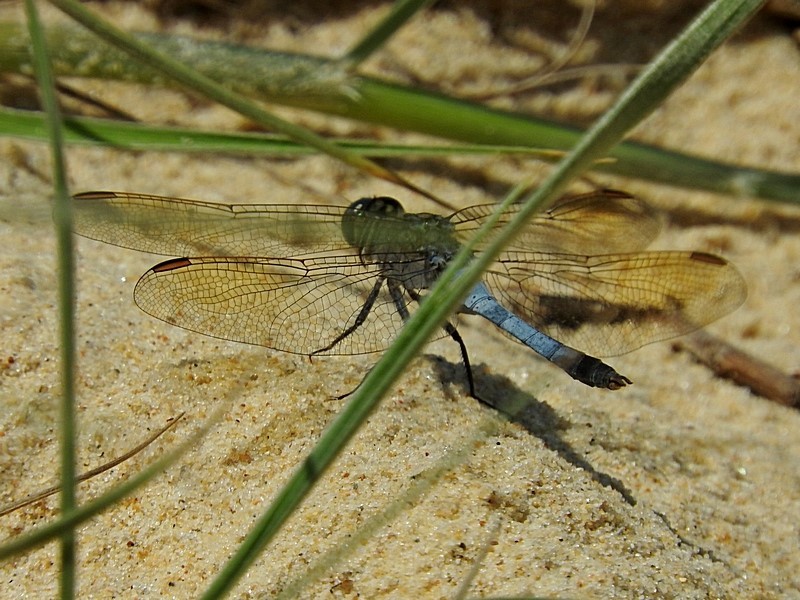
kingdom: Animalia
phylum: Arthropoda
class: Insecta
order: Odonata
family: Libellulidae
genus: Orthetrum
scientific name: Orthetrum caledonicum
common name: Blue skimmer
